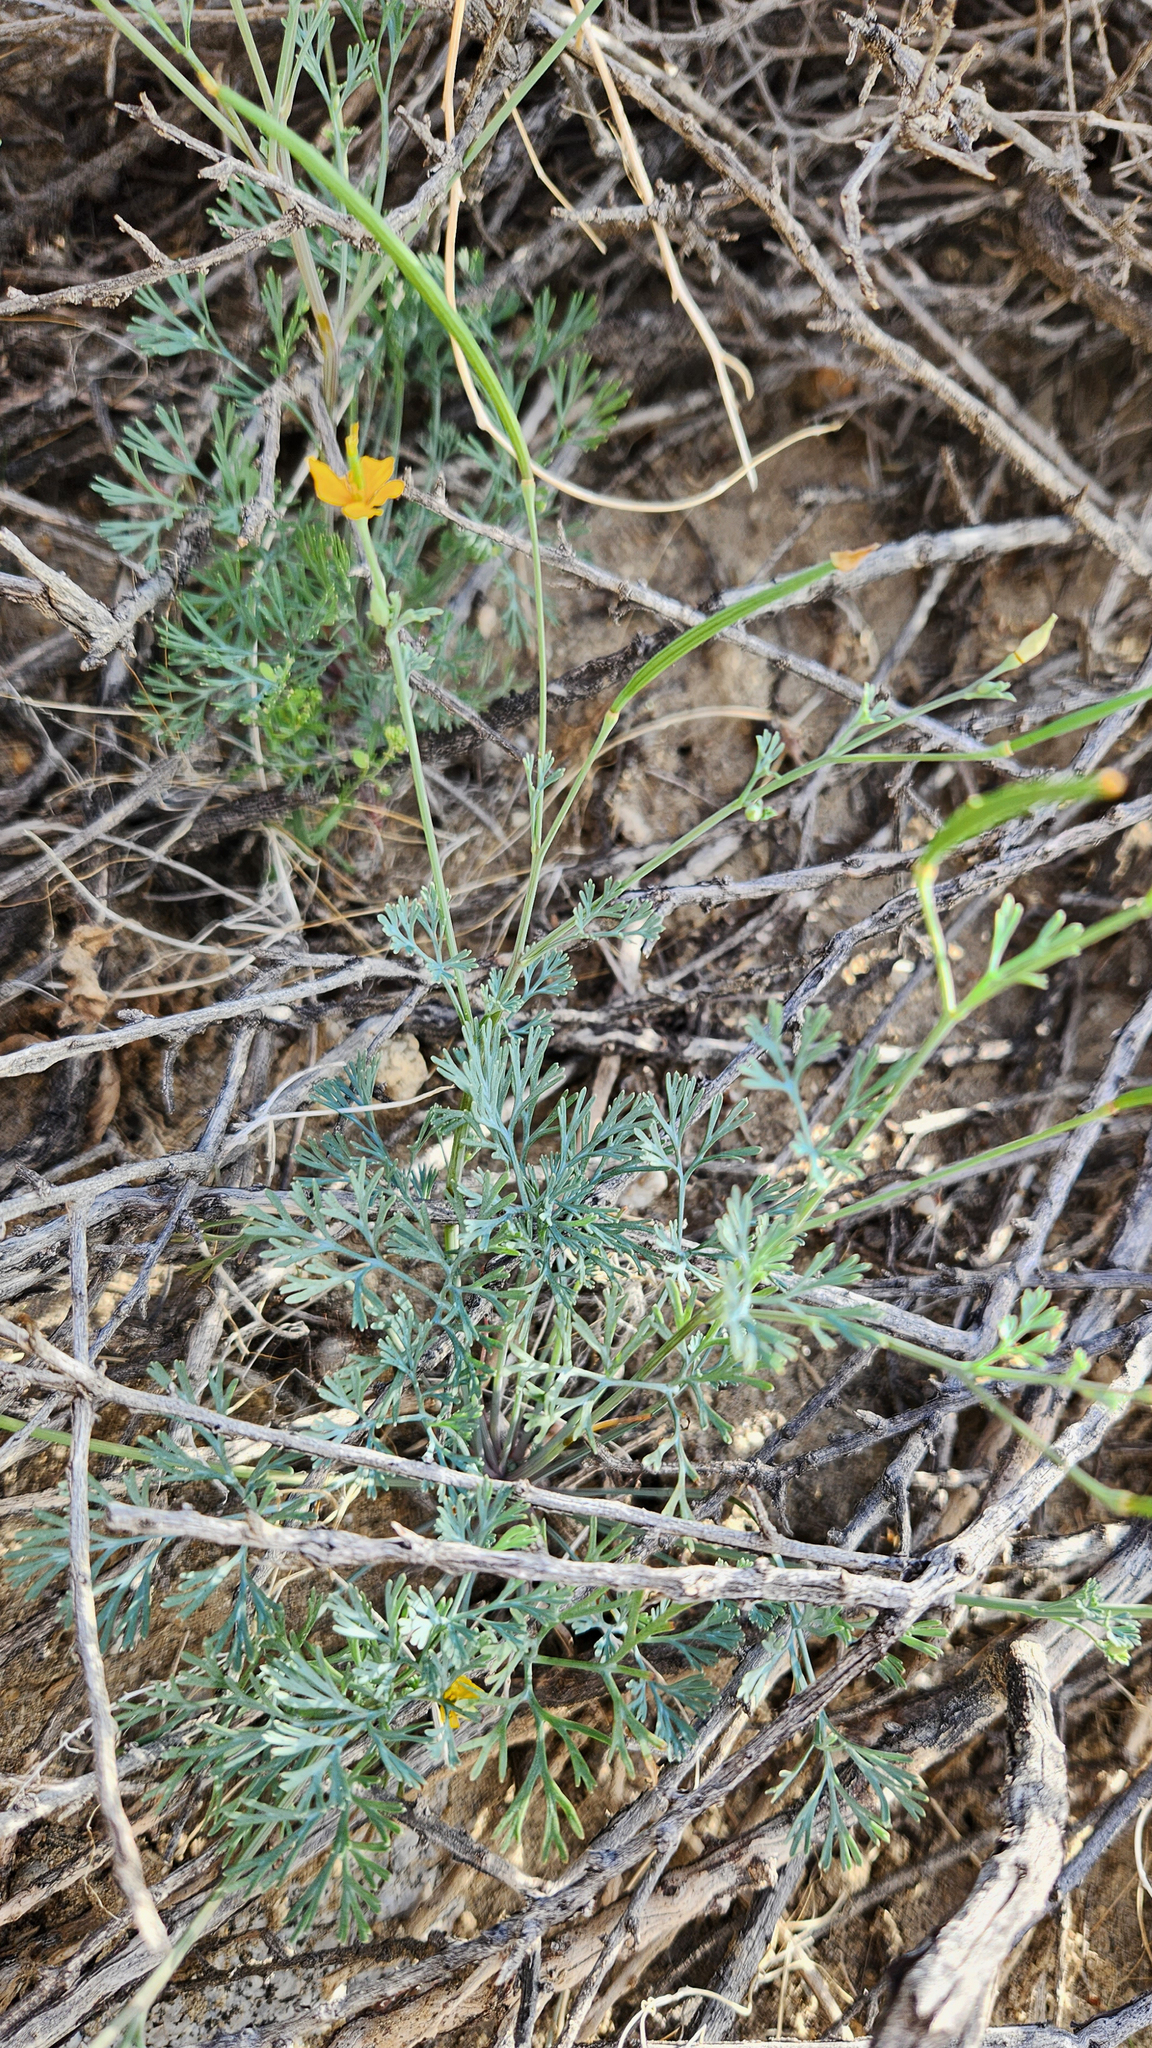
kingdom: Plantae
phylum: Tracheophyta
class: Magnoliopsida
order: Ranunculales
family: Papaveraceae
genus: Eschscholzia
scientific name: Eschscholzia minutiflora
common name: Small-flower california-poppy
